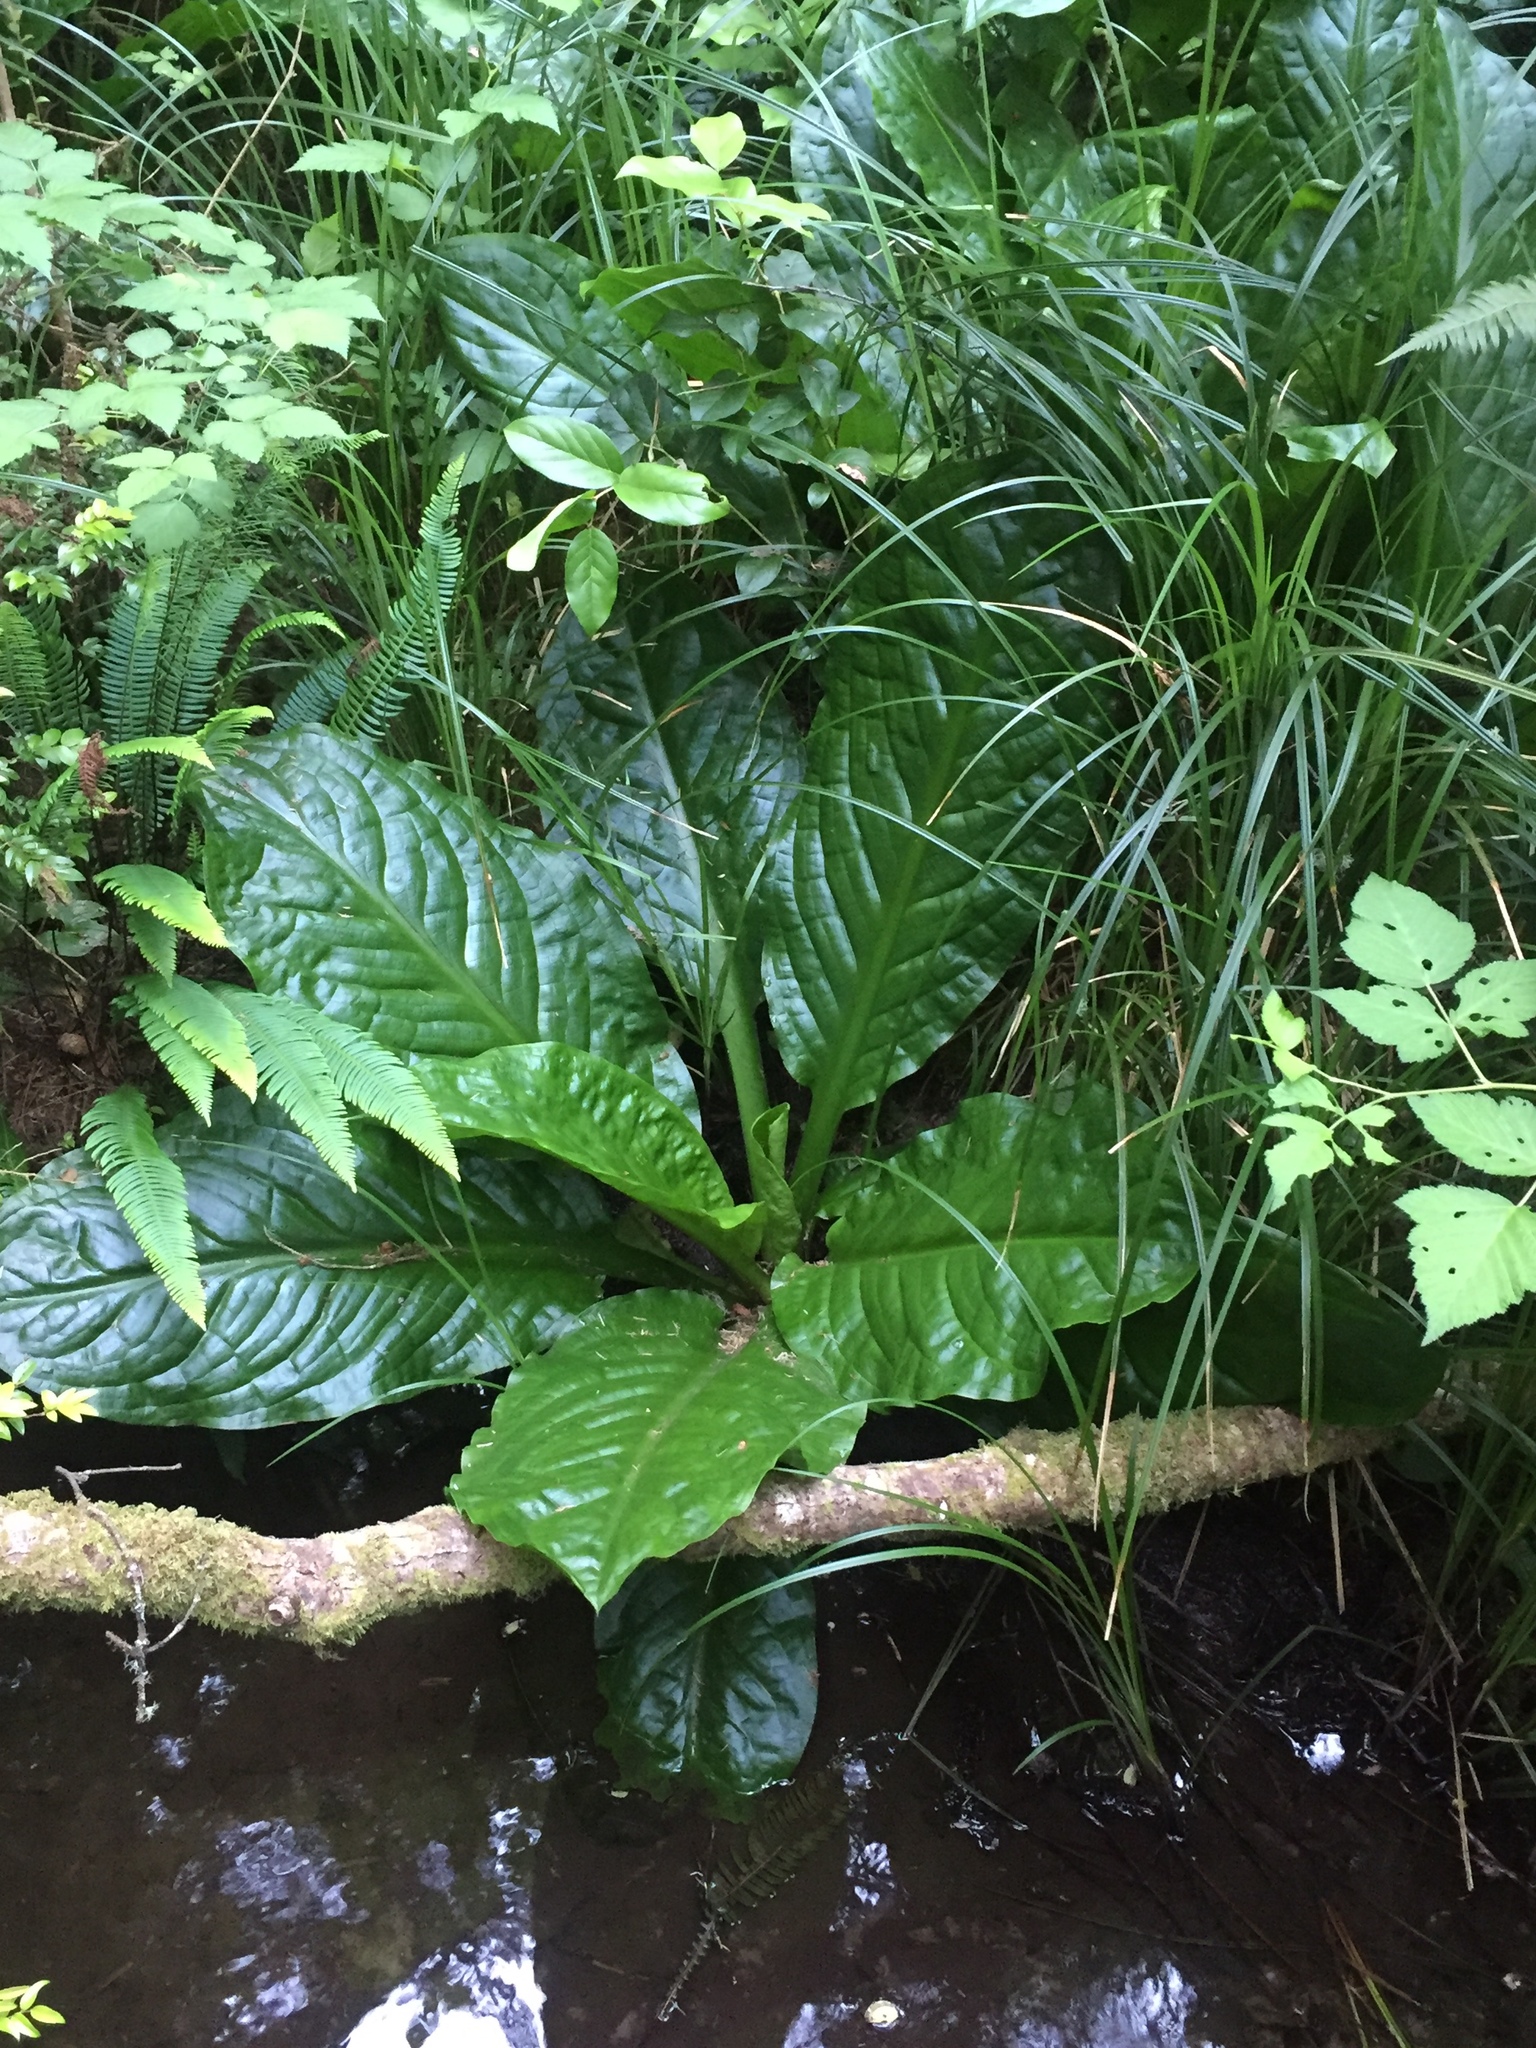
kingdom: Plantae
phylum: Tracheophyta
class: Liliopsida
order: Alismatales
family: Araceae
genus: Lysichiton
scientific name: Lysichiton americanus
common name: American skunk cabbage
